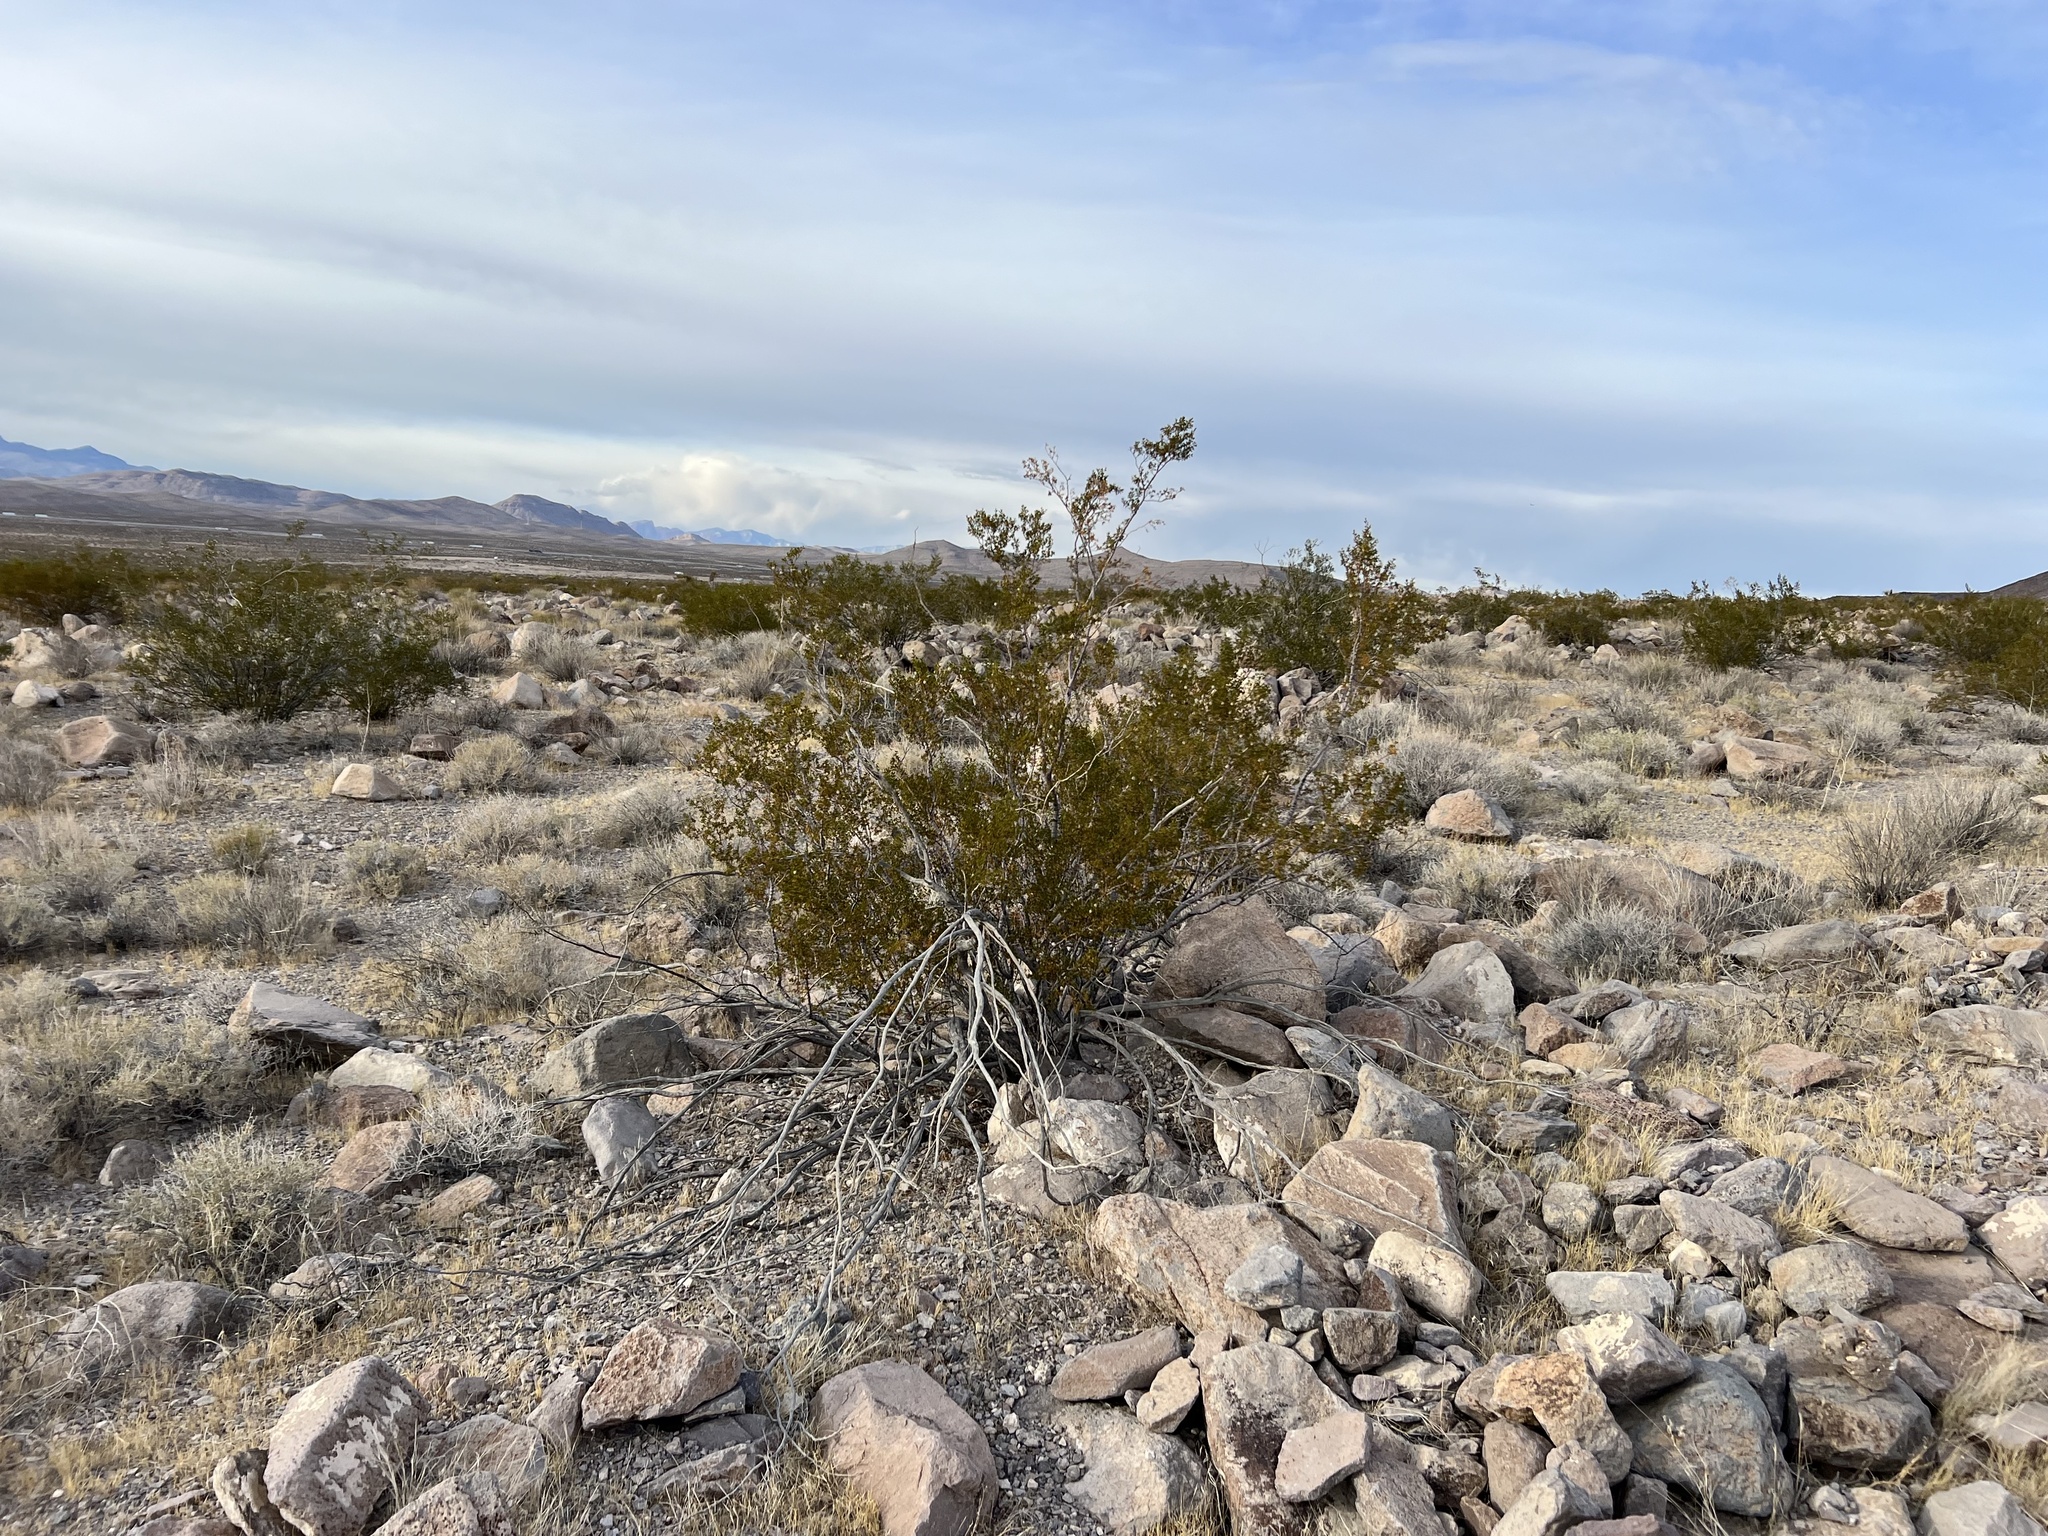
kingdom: Plantae
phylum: Tracheophyta
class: Magnoliopsida
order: Zygophyllales
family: Zygophyllaceae
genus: Larrea
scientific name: Larrea tridentata
